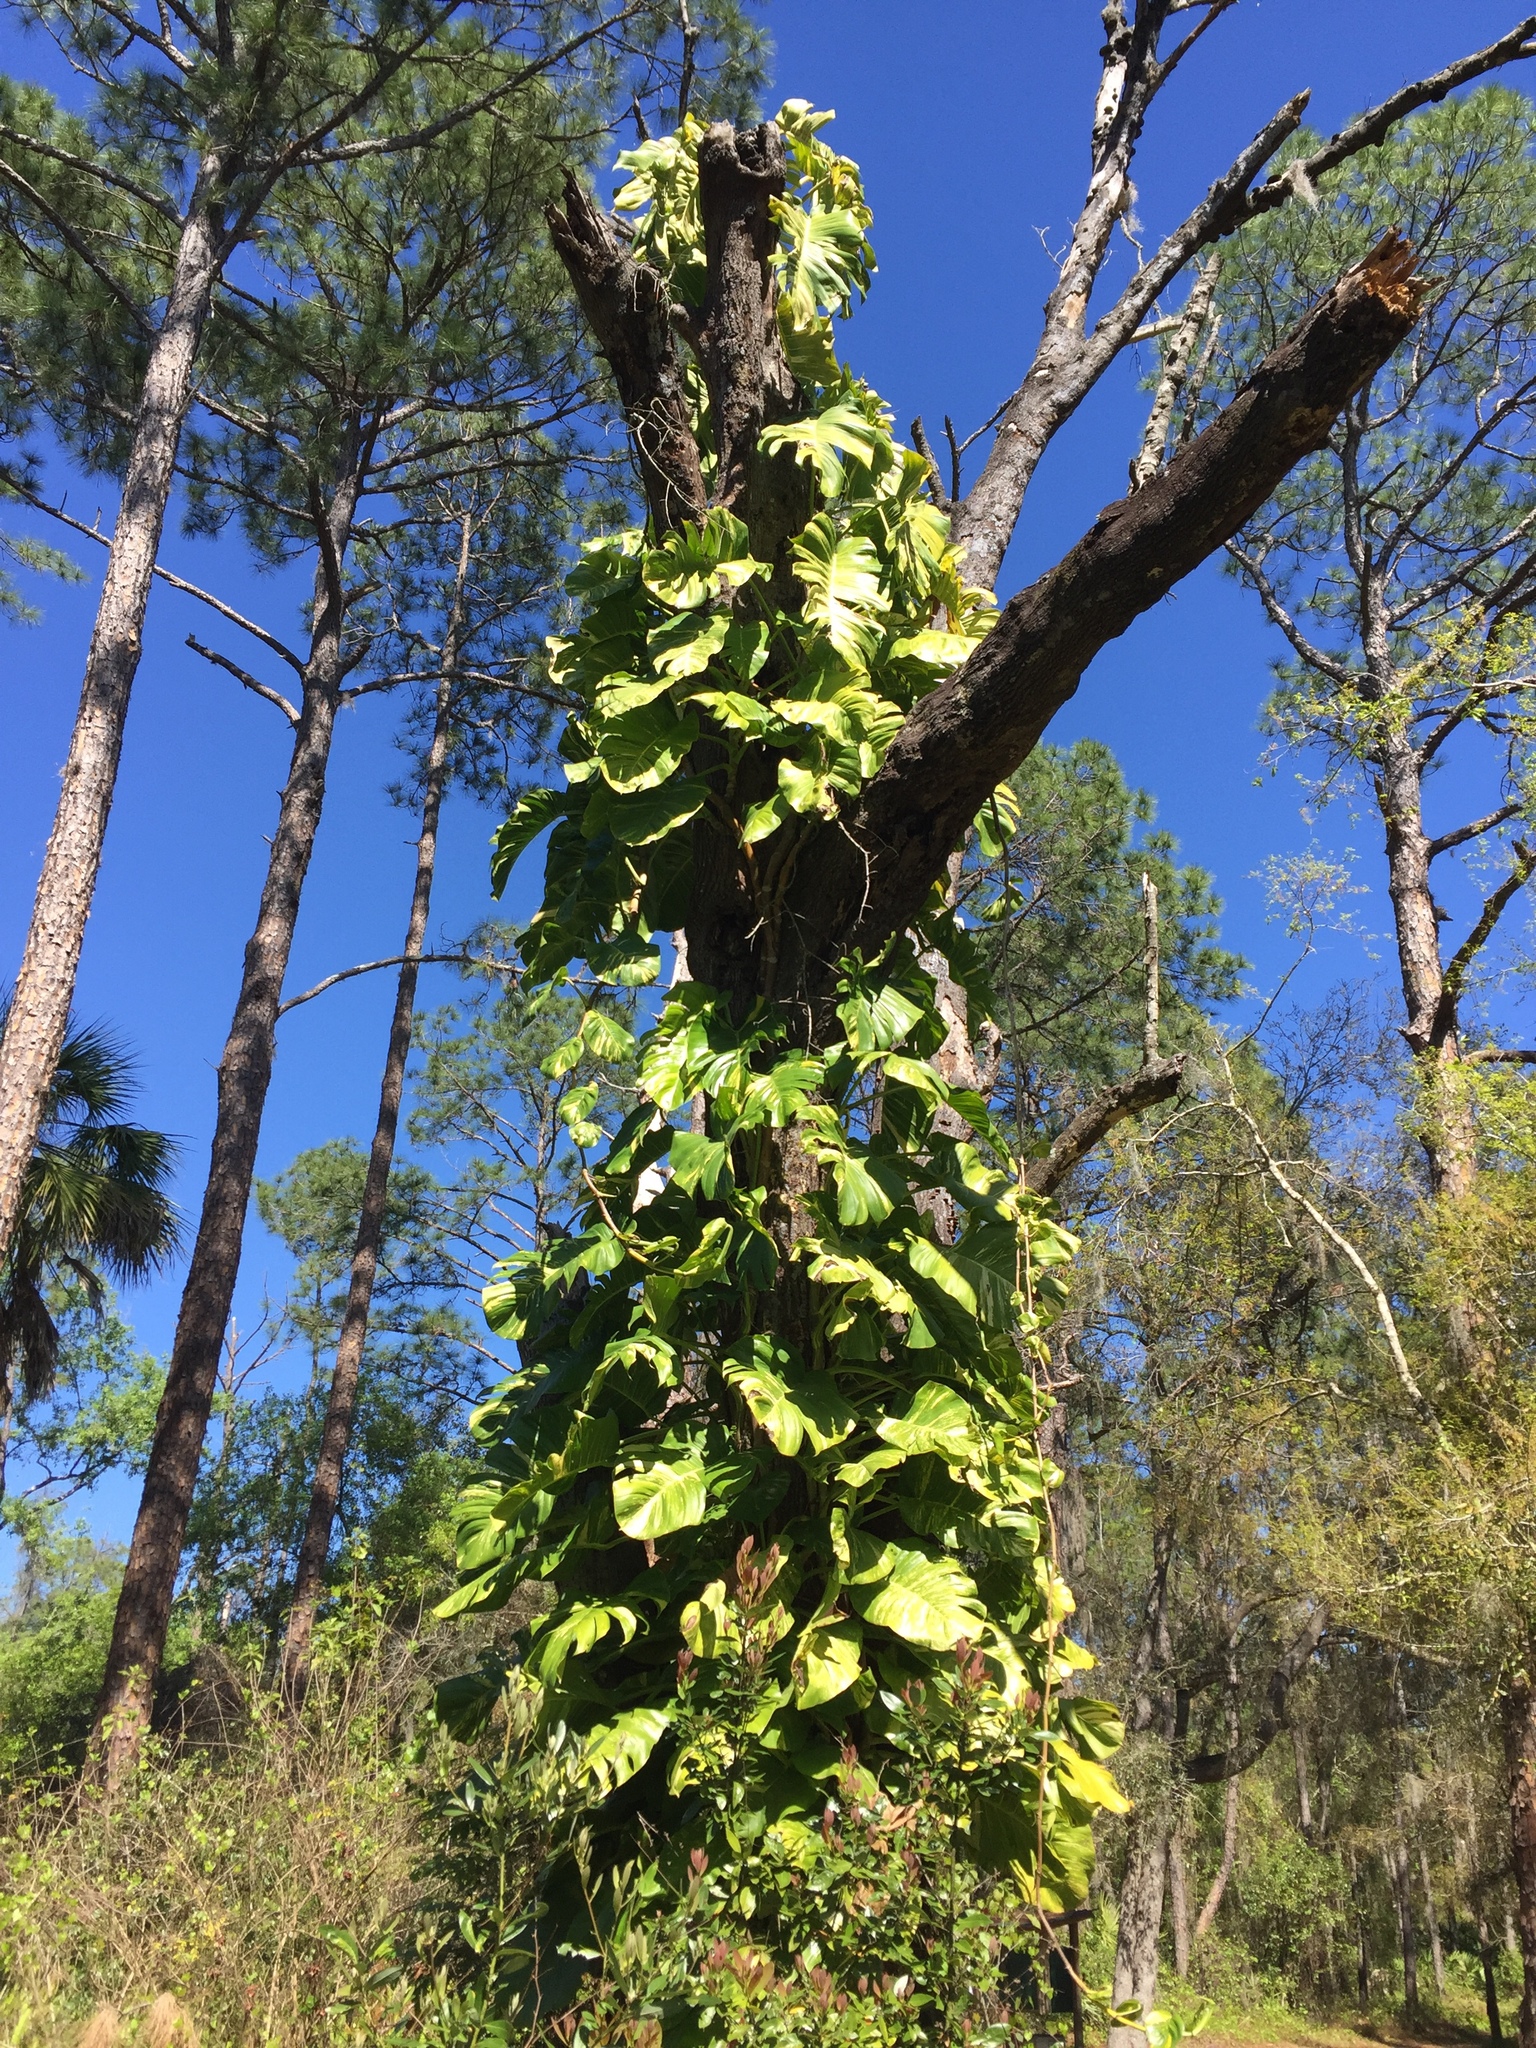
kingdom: Plantae
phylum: Tracheophyta
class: Liliopsida
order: Alismatales
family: Araceae
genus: Epipremnum
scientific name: Epipremnum aureum
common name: Golden hunter's-robe
